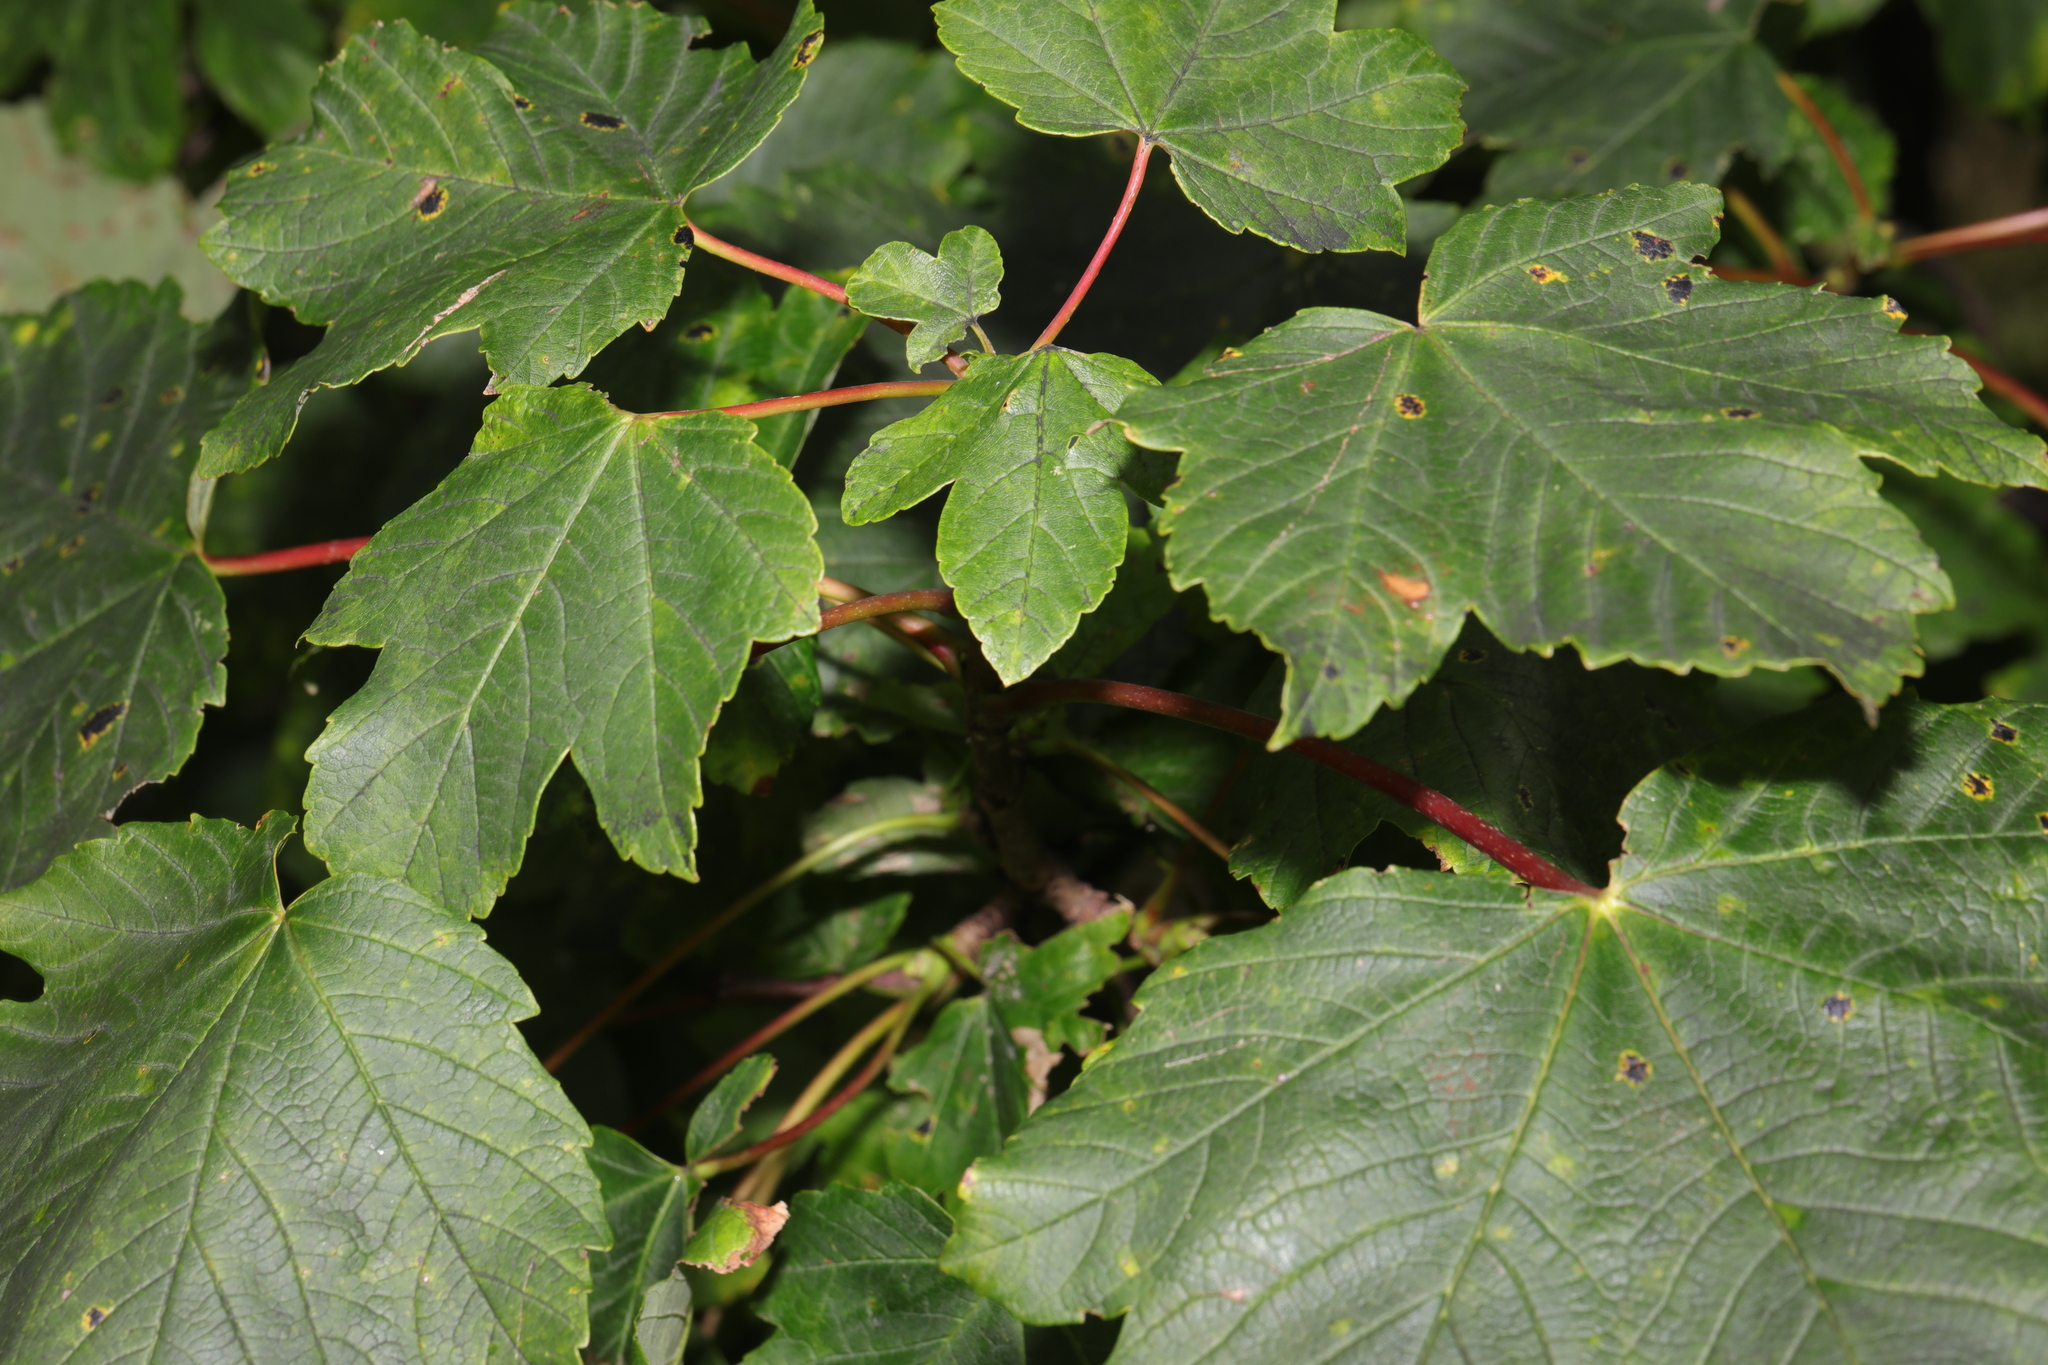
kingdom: Plantae
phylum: Tracheophyta
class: Magnoliopsida
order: Sapindales
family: Sapindaceae
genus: Acer
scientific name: Acer pseudoplatanus
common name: Sycamore
